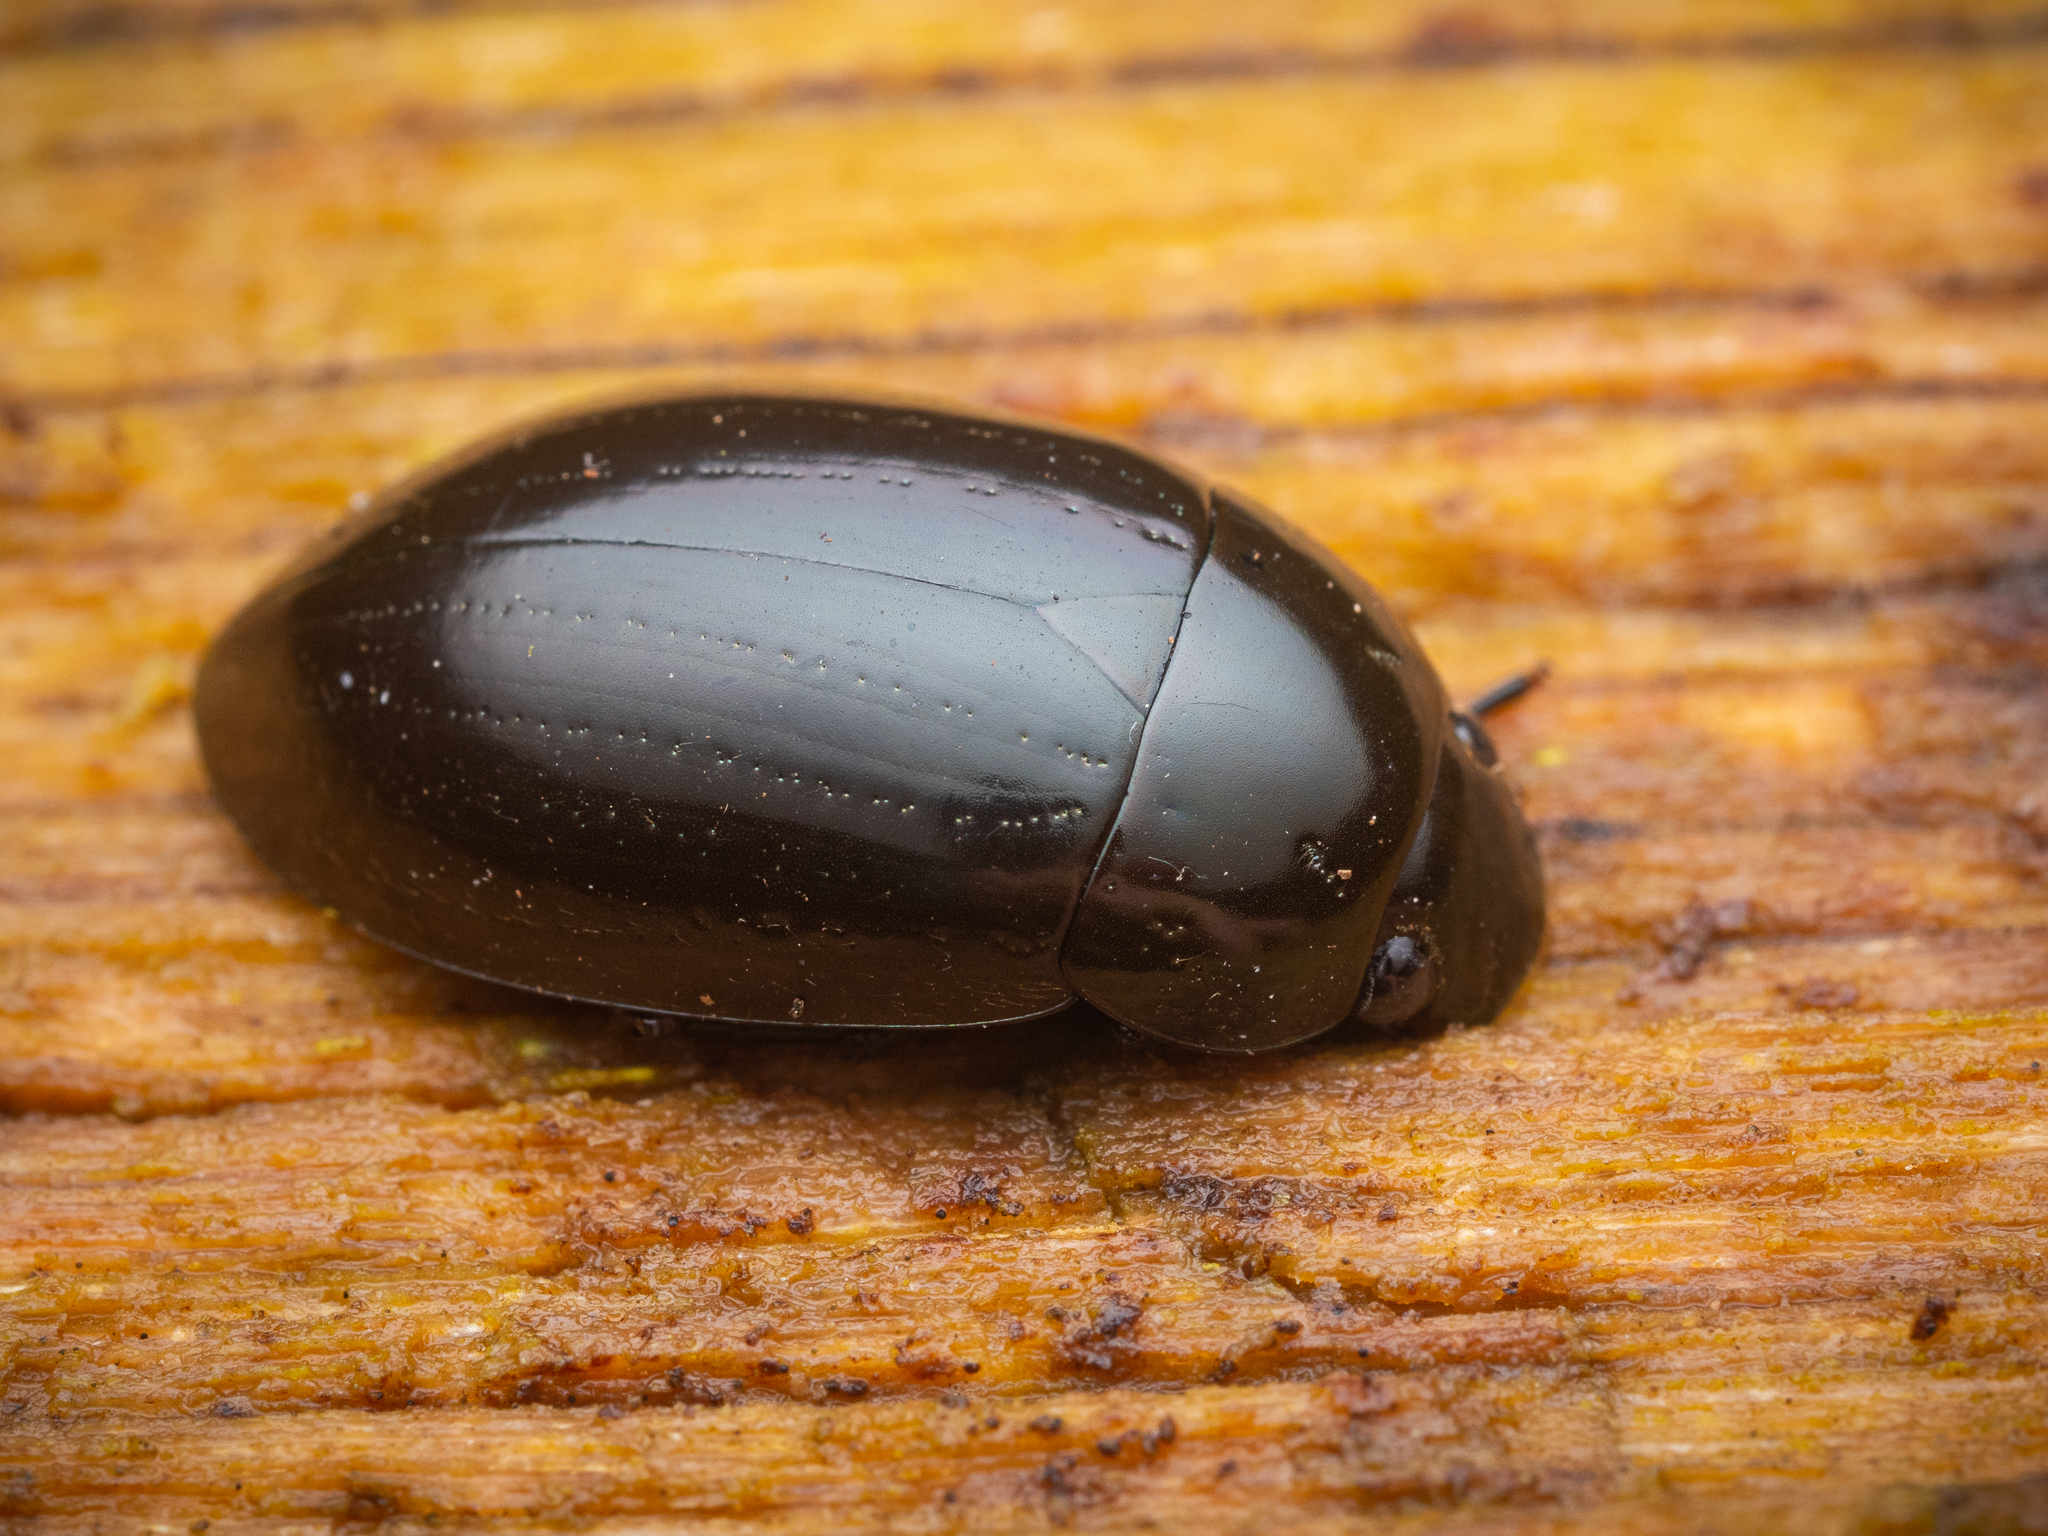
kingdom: Animalia
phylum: Arthropoda
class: Insecta
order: Coleoptera
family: Hydrophilidae
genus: Hydrochara
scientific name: Hydrochara caraboides
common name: Lesser silver water beetle
